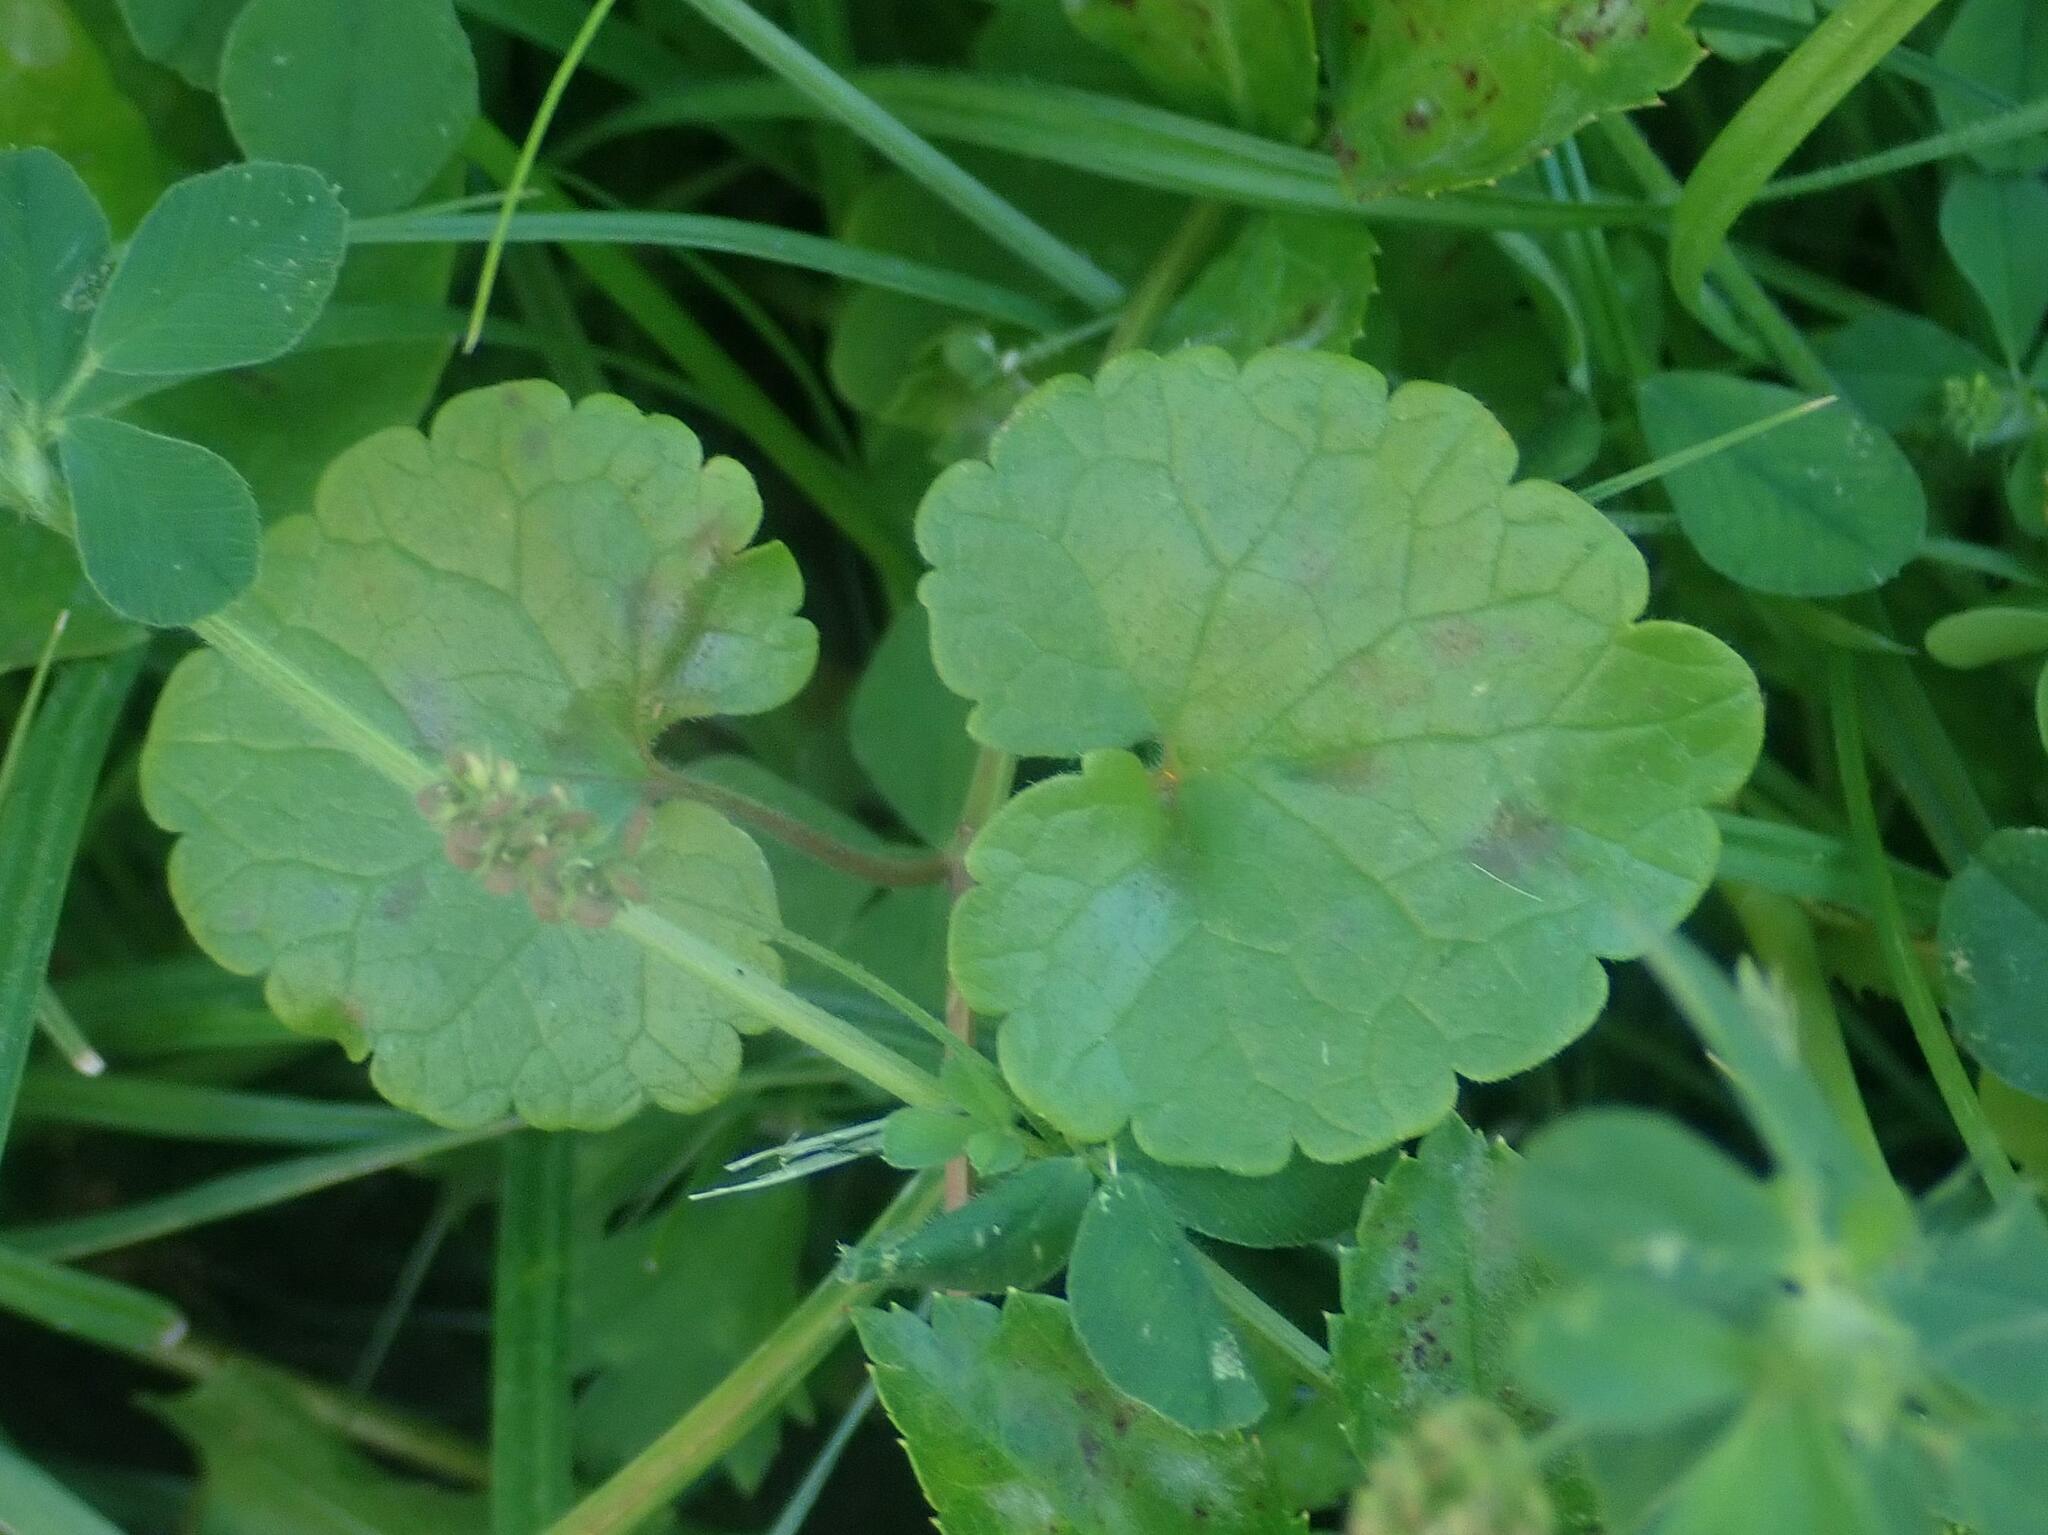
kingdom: Plantae
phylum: Tracheophyta
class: Magnoliopsida
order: Lamiales
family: Lamiaceae
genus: Glechoma
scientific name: Glechoma hederacea
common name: Ground ivy
